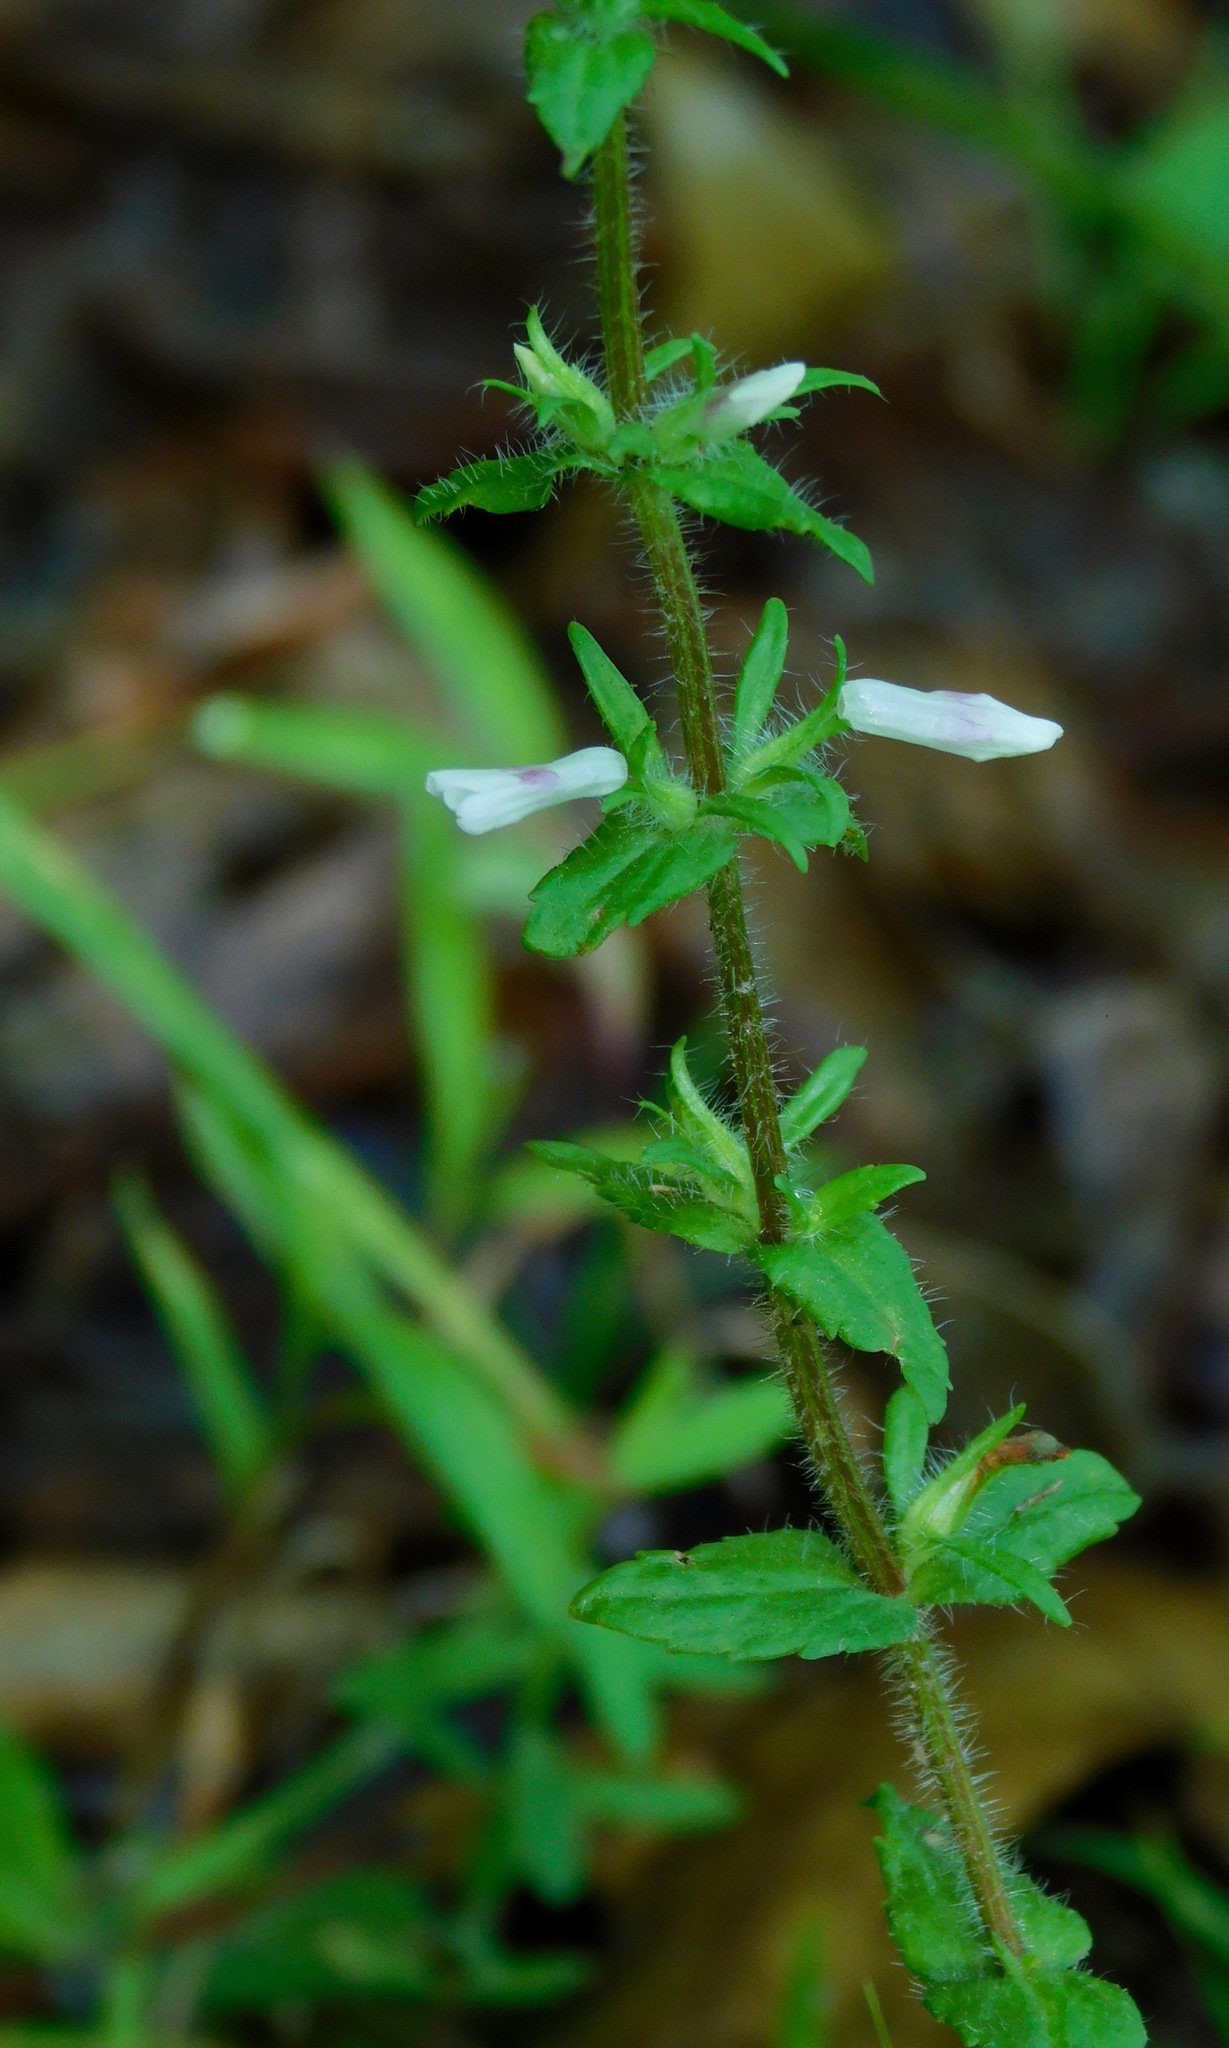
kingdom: Plantae
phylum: Tracheophyta
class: Magnoliopsida
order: Lamiales
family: Plantaginaceae
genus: Gratiola
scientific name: Gratiola pilosa
